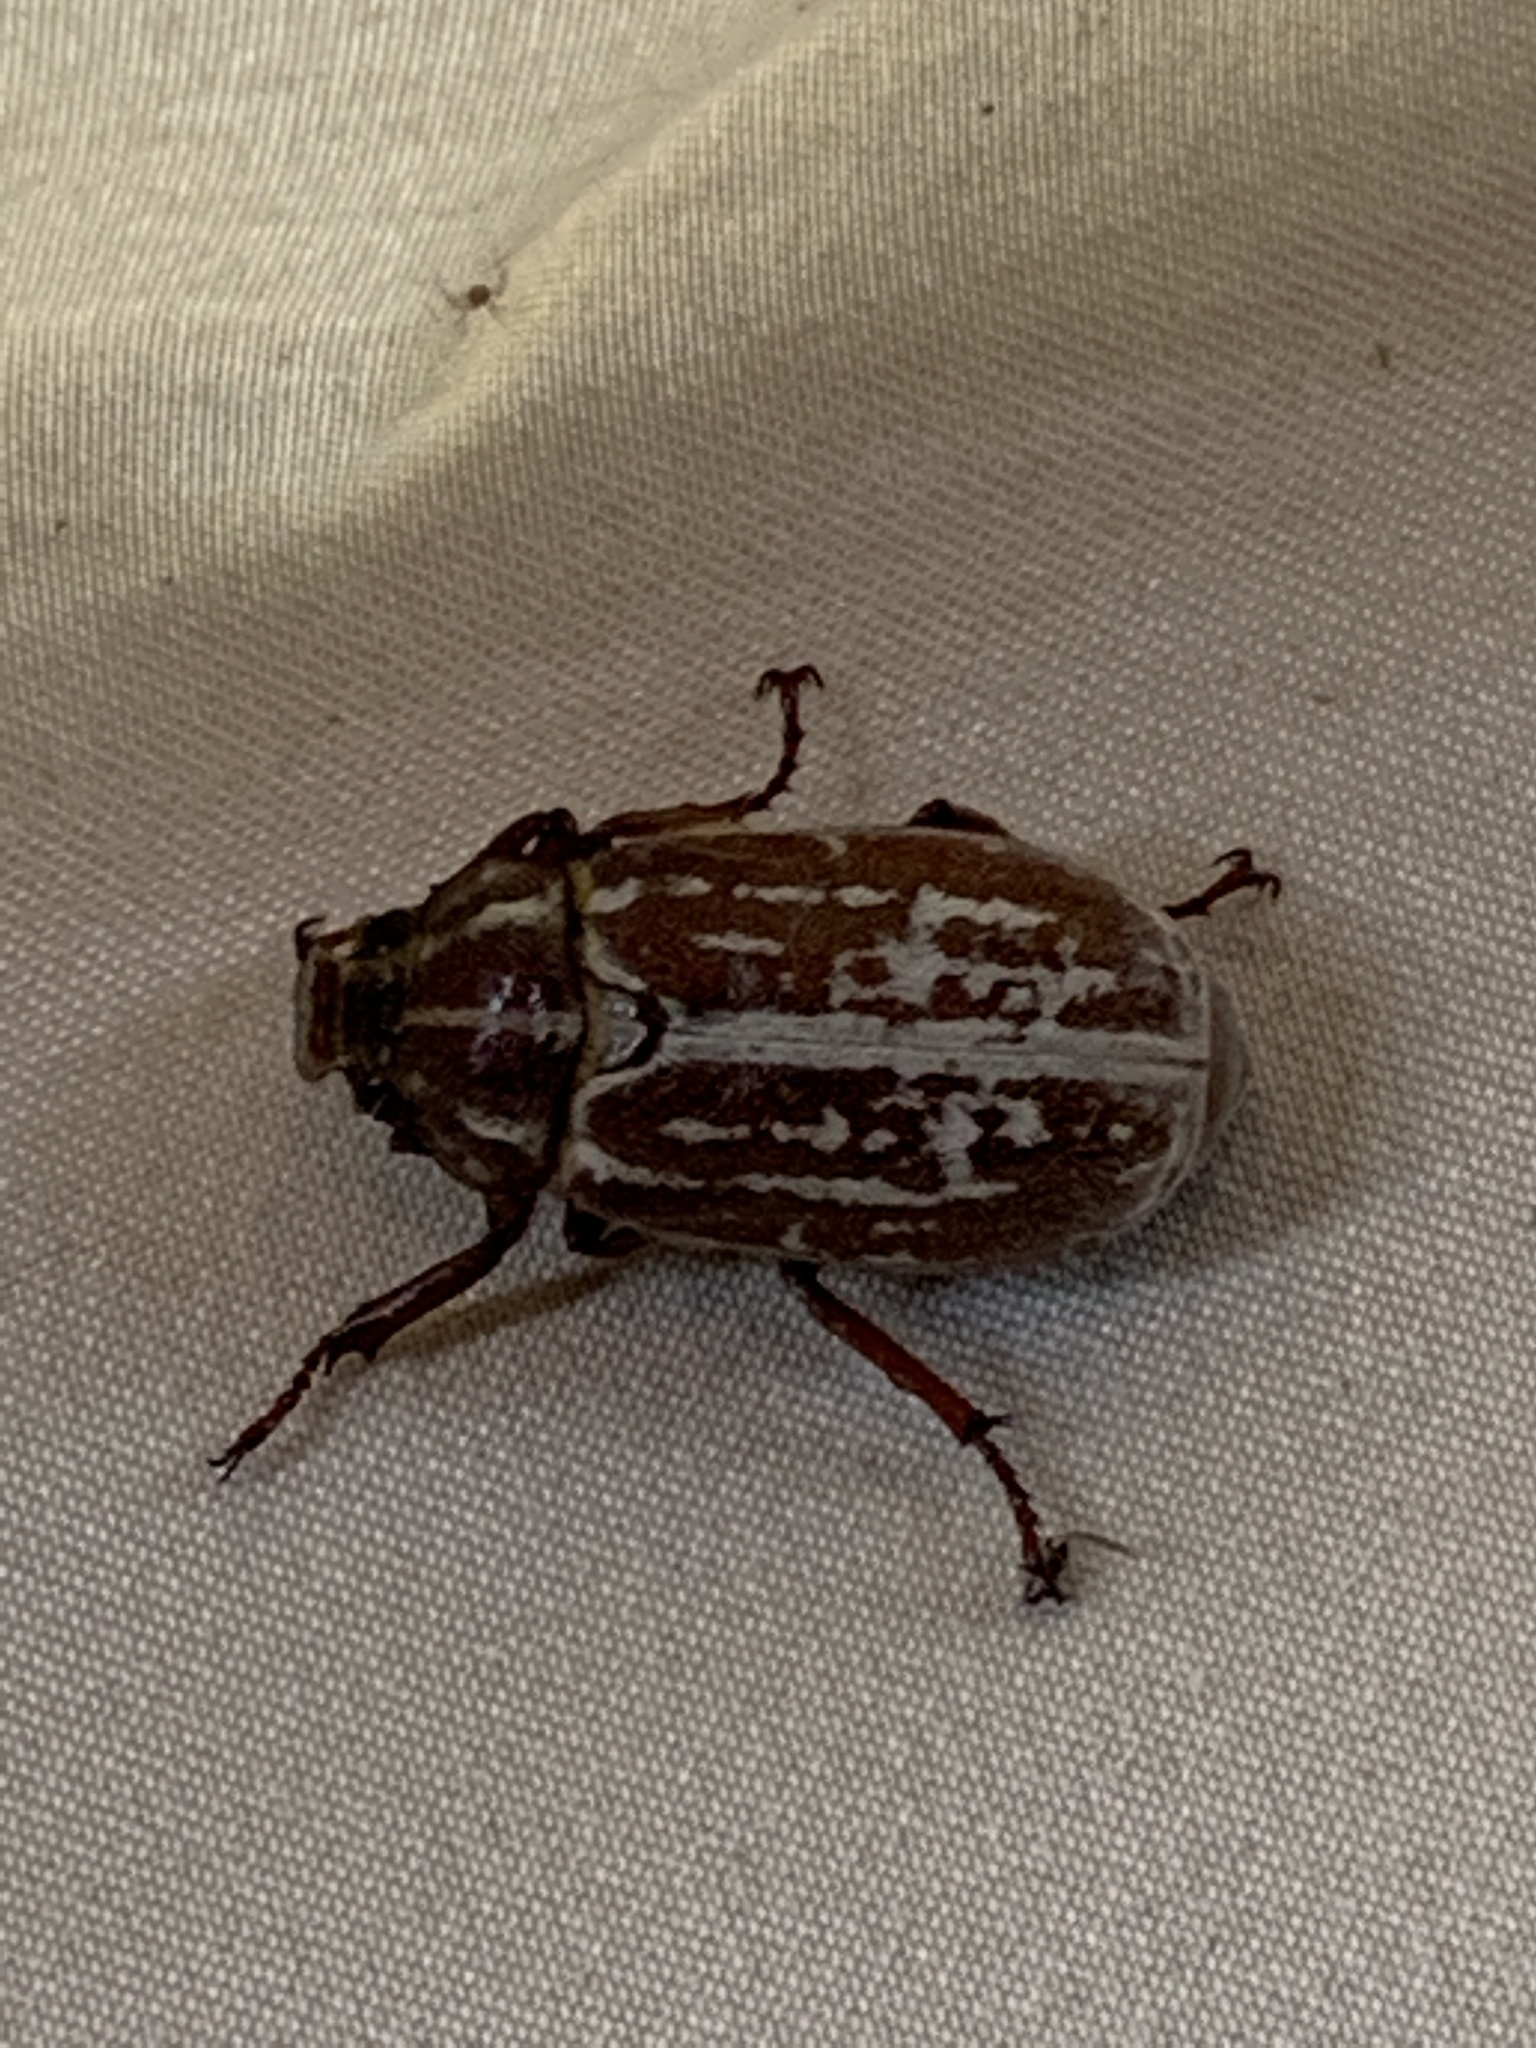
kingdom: Animalia
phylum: Arthropoda
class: Insecta
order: Coleoptera
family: Scarabaeidae
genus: Polyphylla
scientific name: Polyphylla comes
